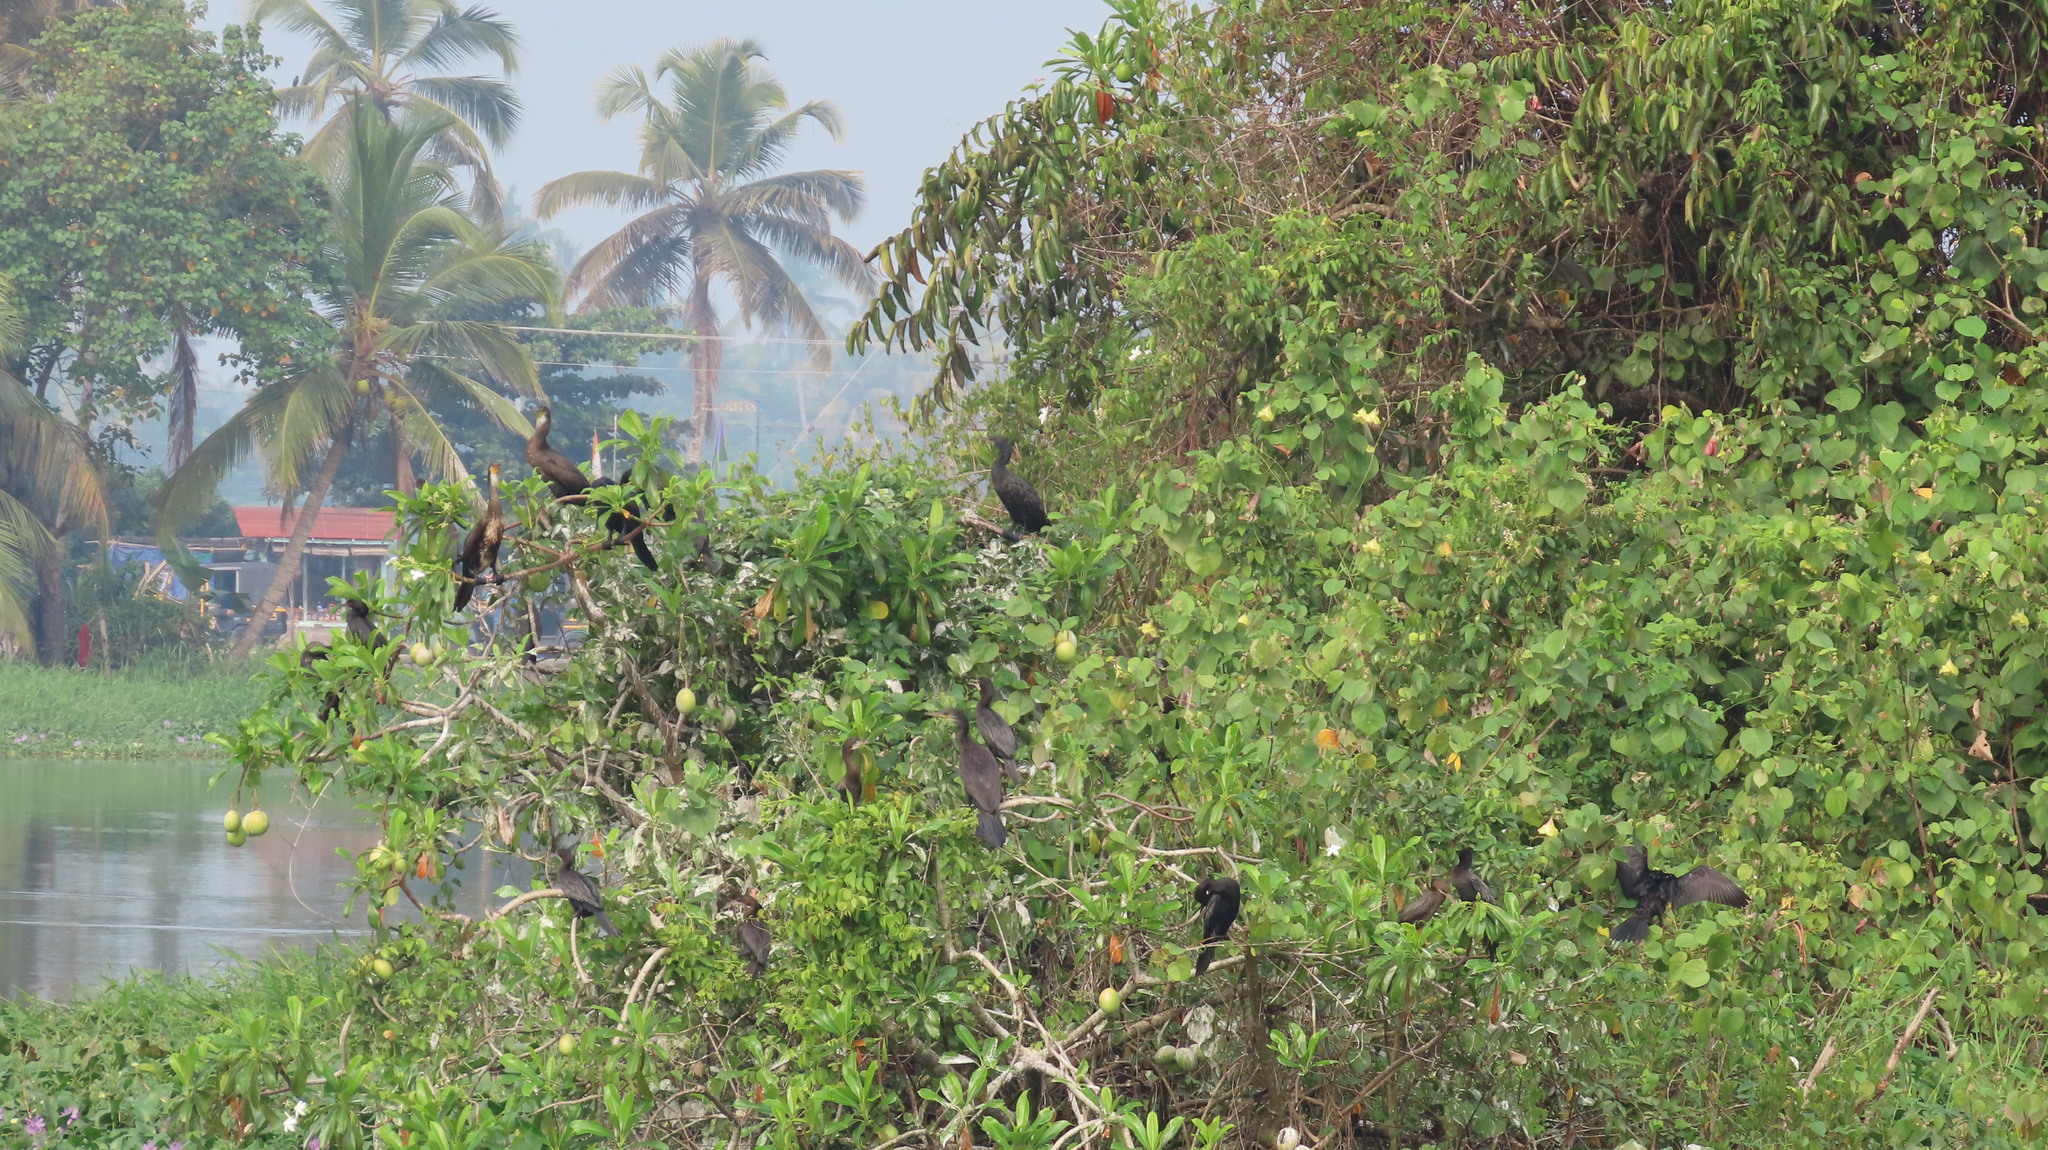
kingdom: Animalia
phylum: Chordata
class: Aves
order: Suliformes
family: Phalacrocoracidae
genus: Phalacrocorax
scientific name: Phalacrocorax fuscicollis
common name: Indian cormorant
